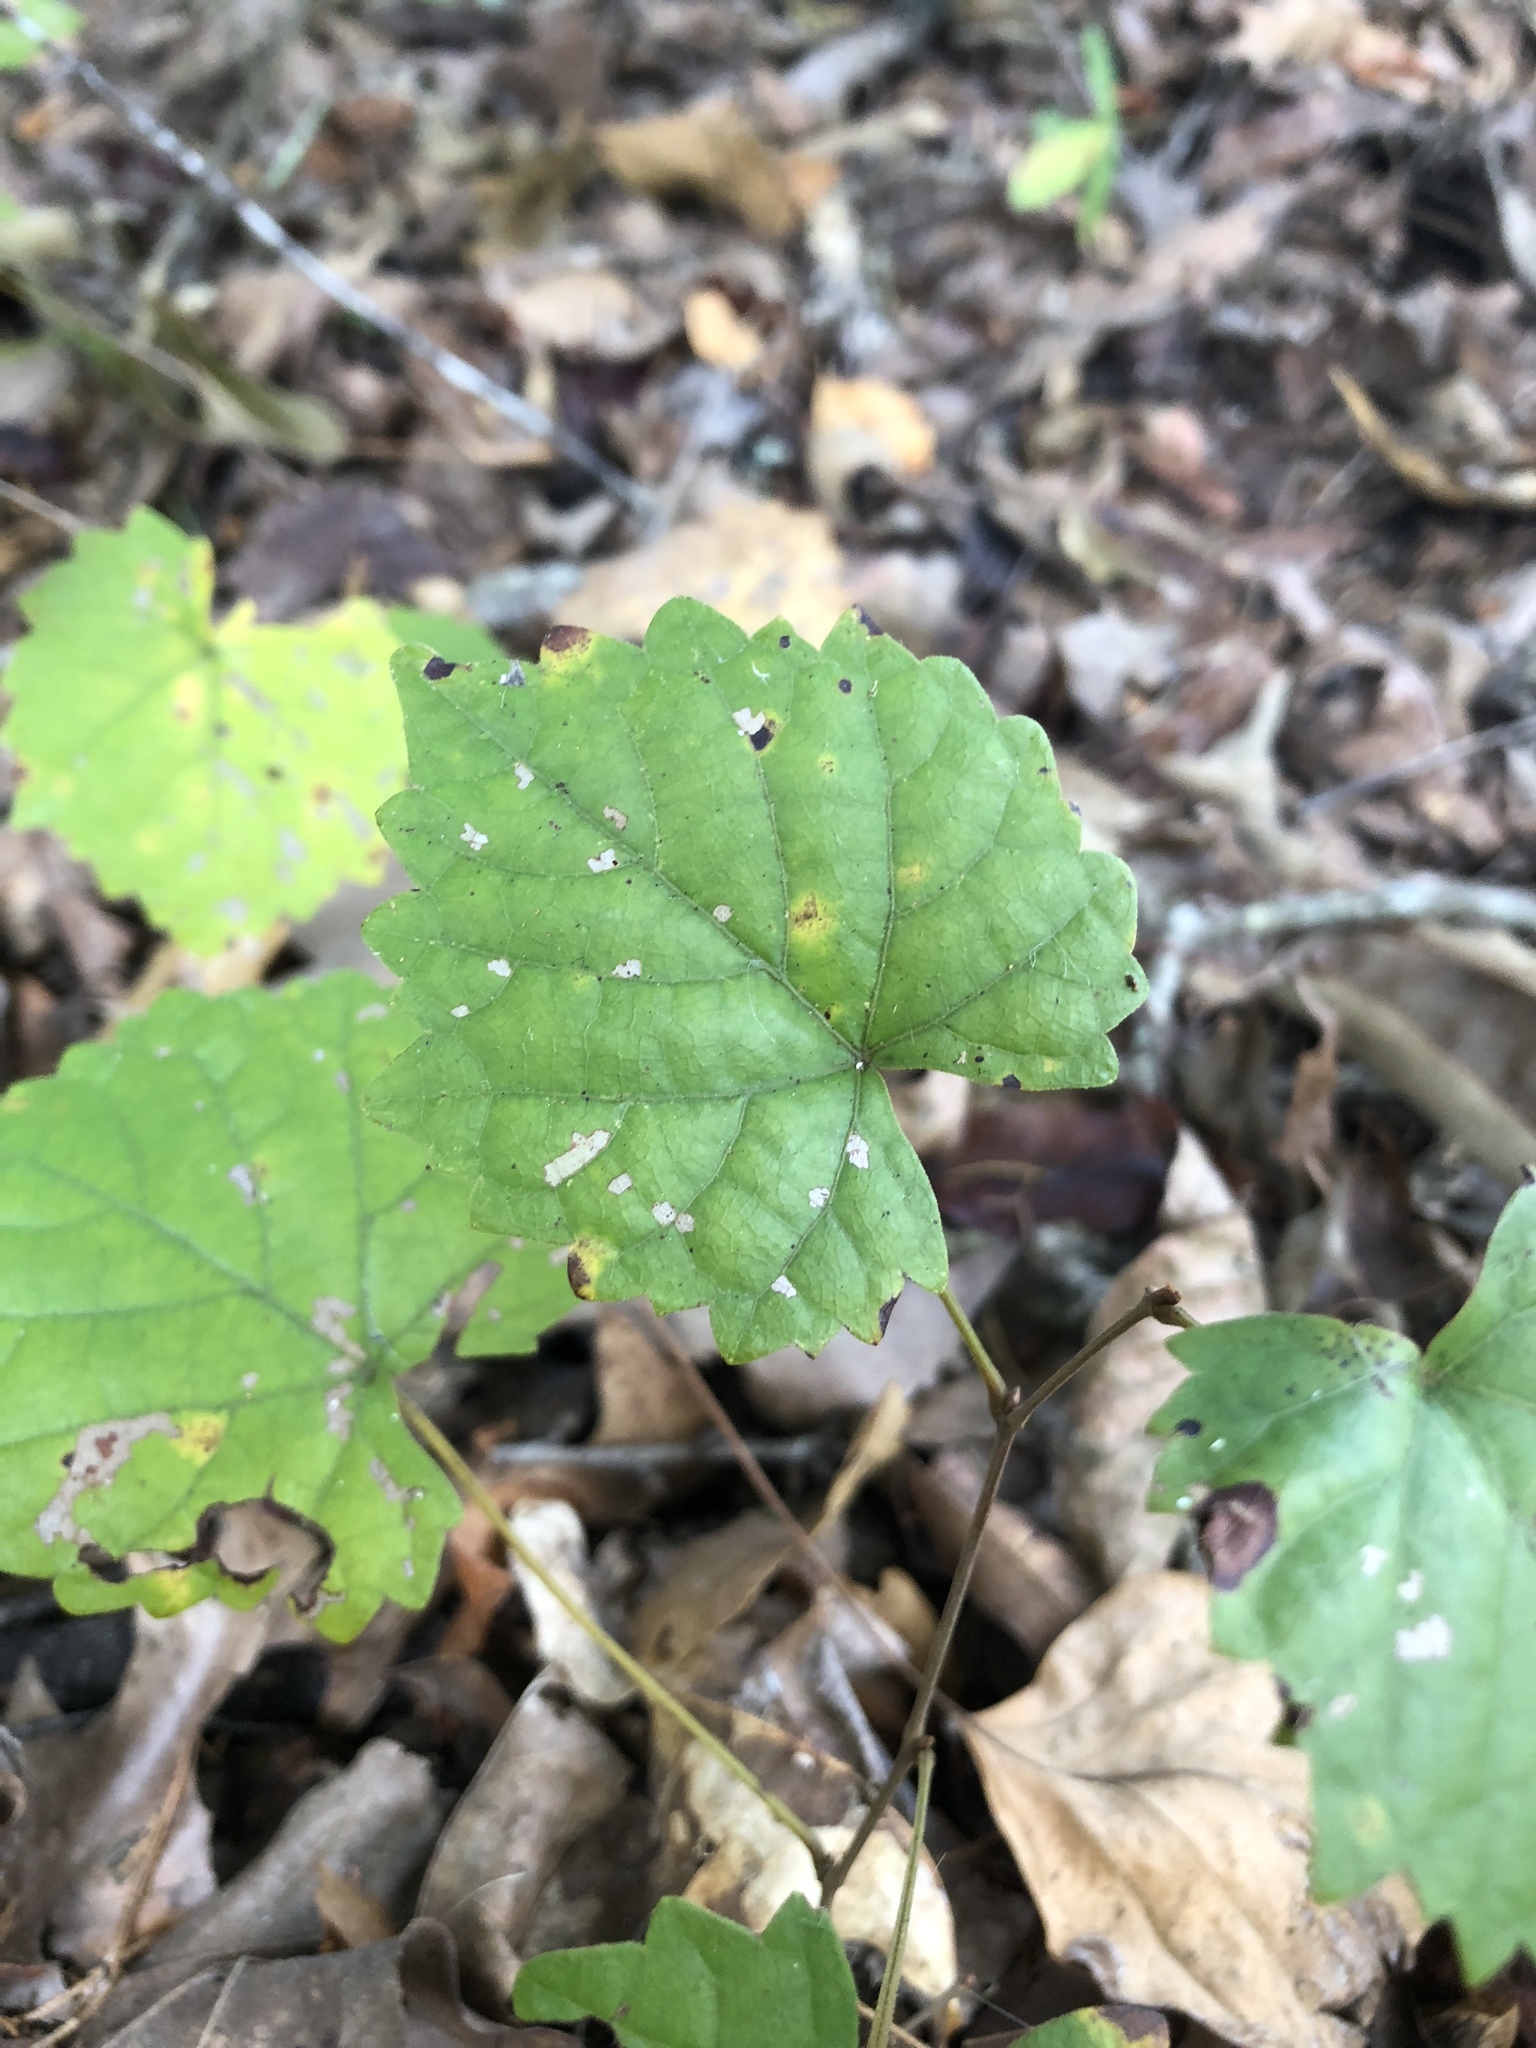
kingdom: Plantae
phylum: Tracheophyta
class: Magnoliopsida
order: Vitales
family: Vitaceae
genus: Vitis
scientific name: Vitis rotundifolia
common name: Muscadine grape
